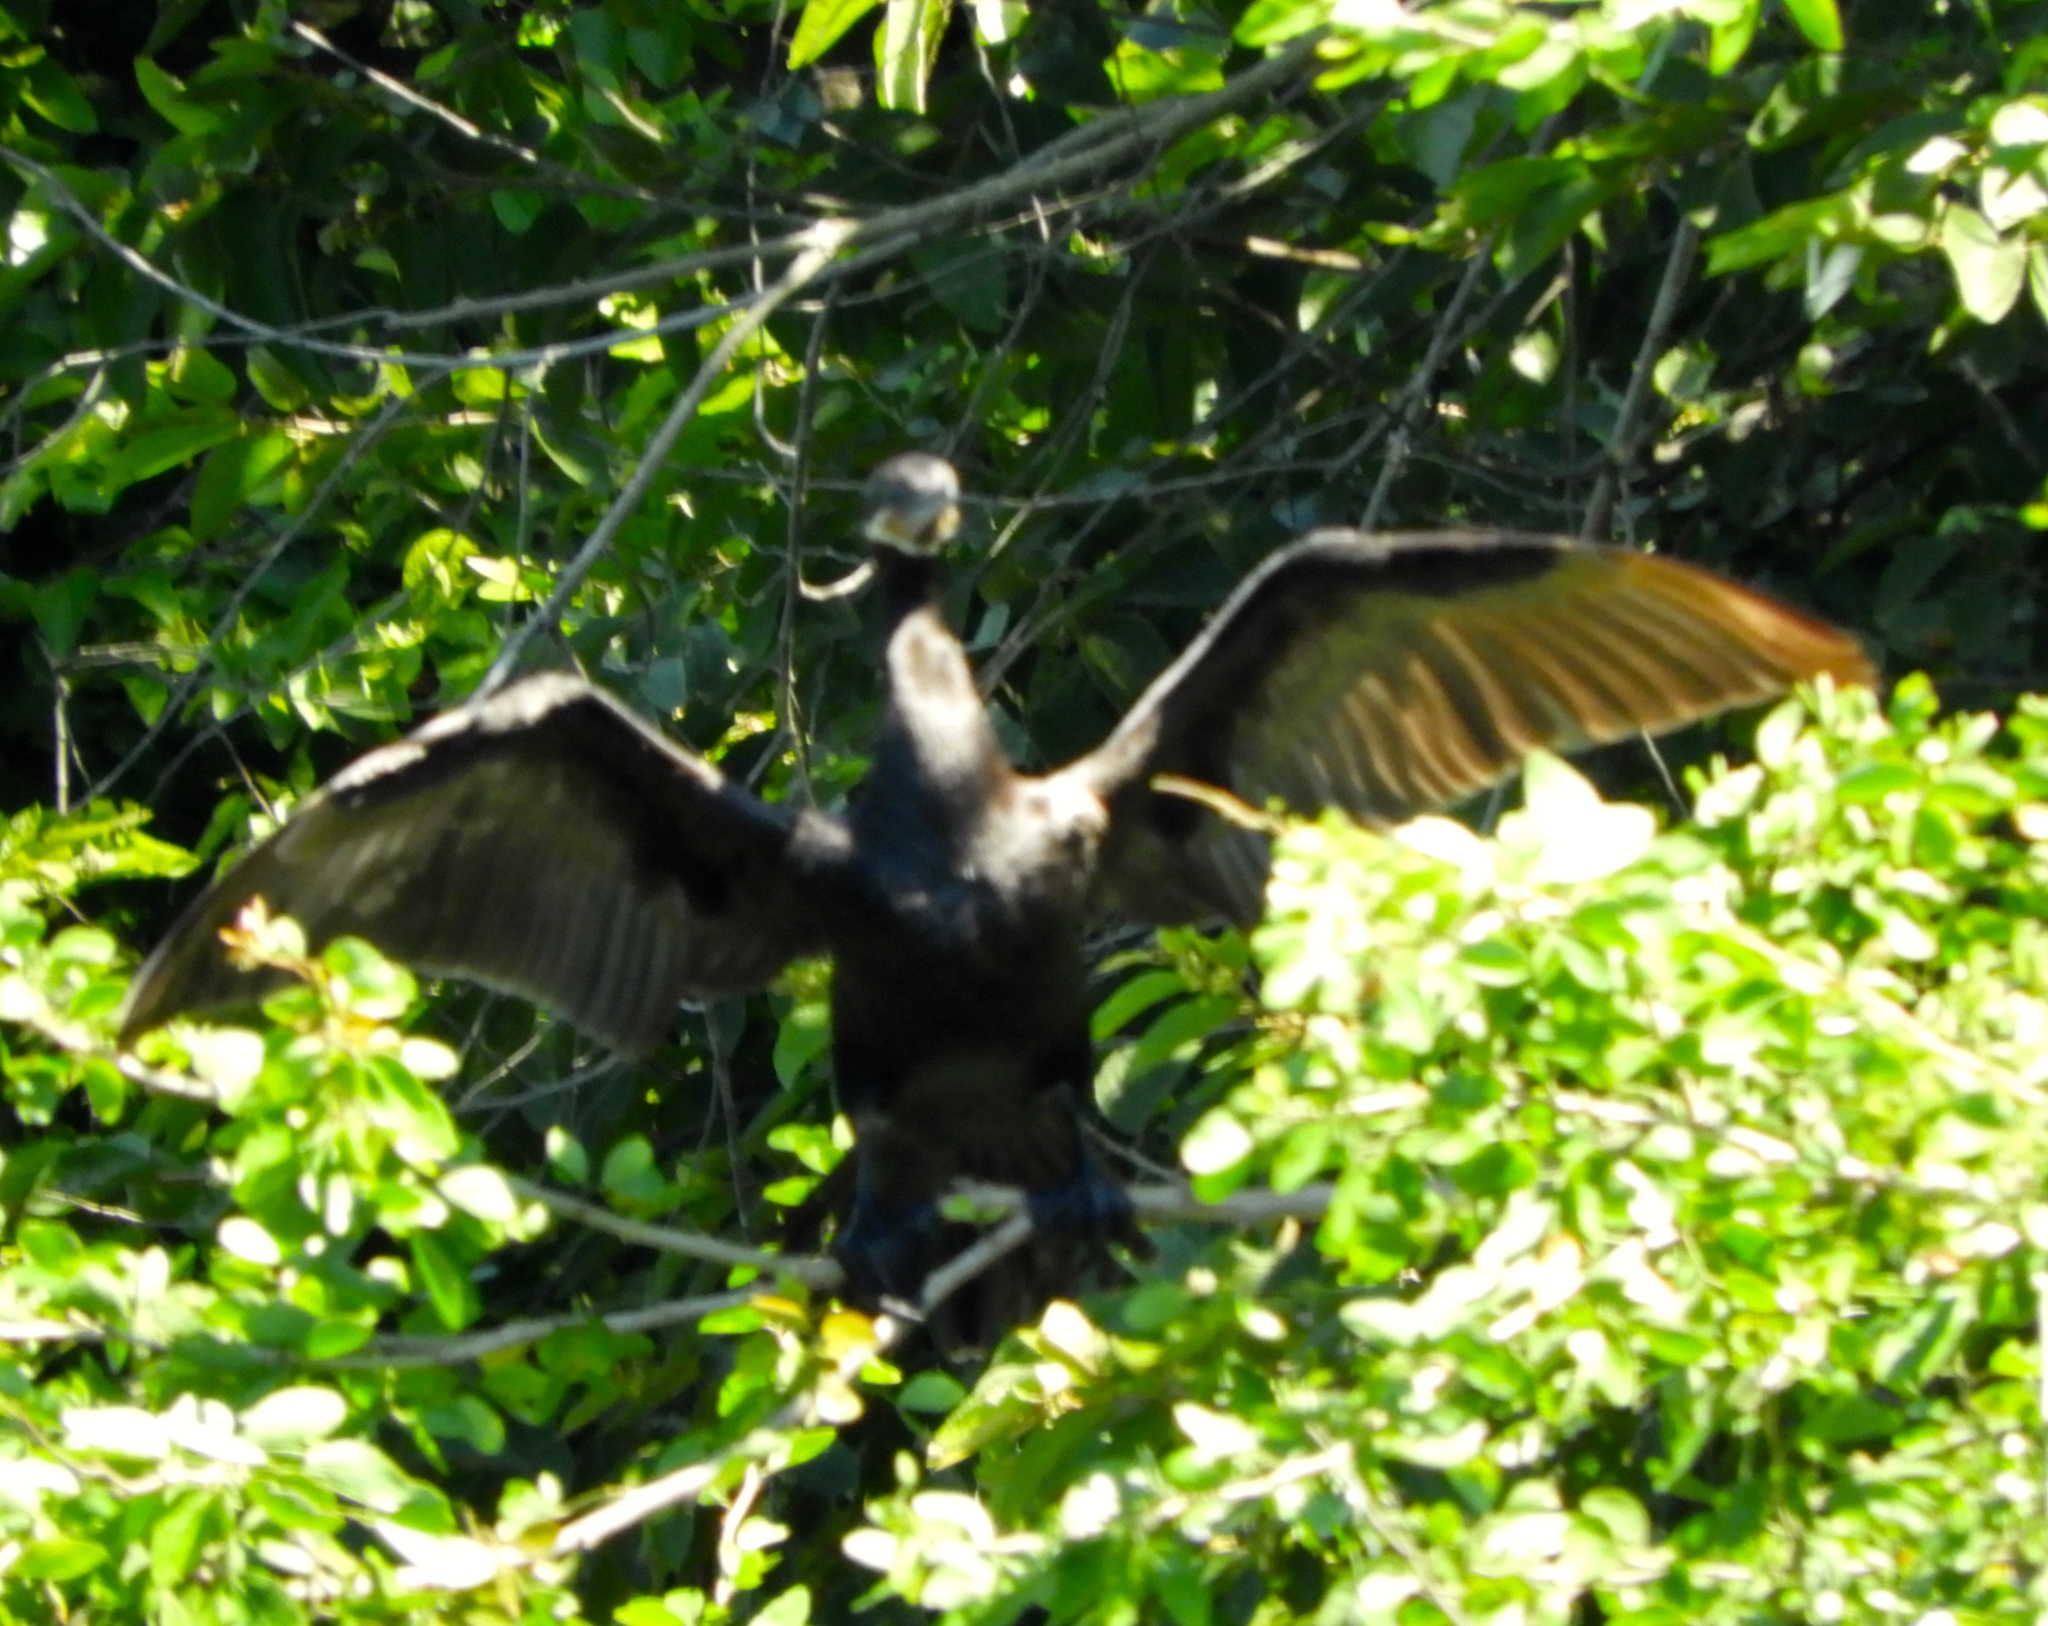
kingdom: Animalia
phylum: Chordata
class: Aves
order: Suliformes
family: Phalacrocoracidae
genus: Phalacrocorax
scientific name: Phalacrocorax brasilianus
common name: Neotropic cormorant
